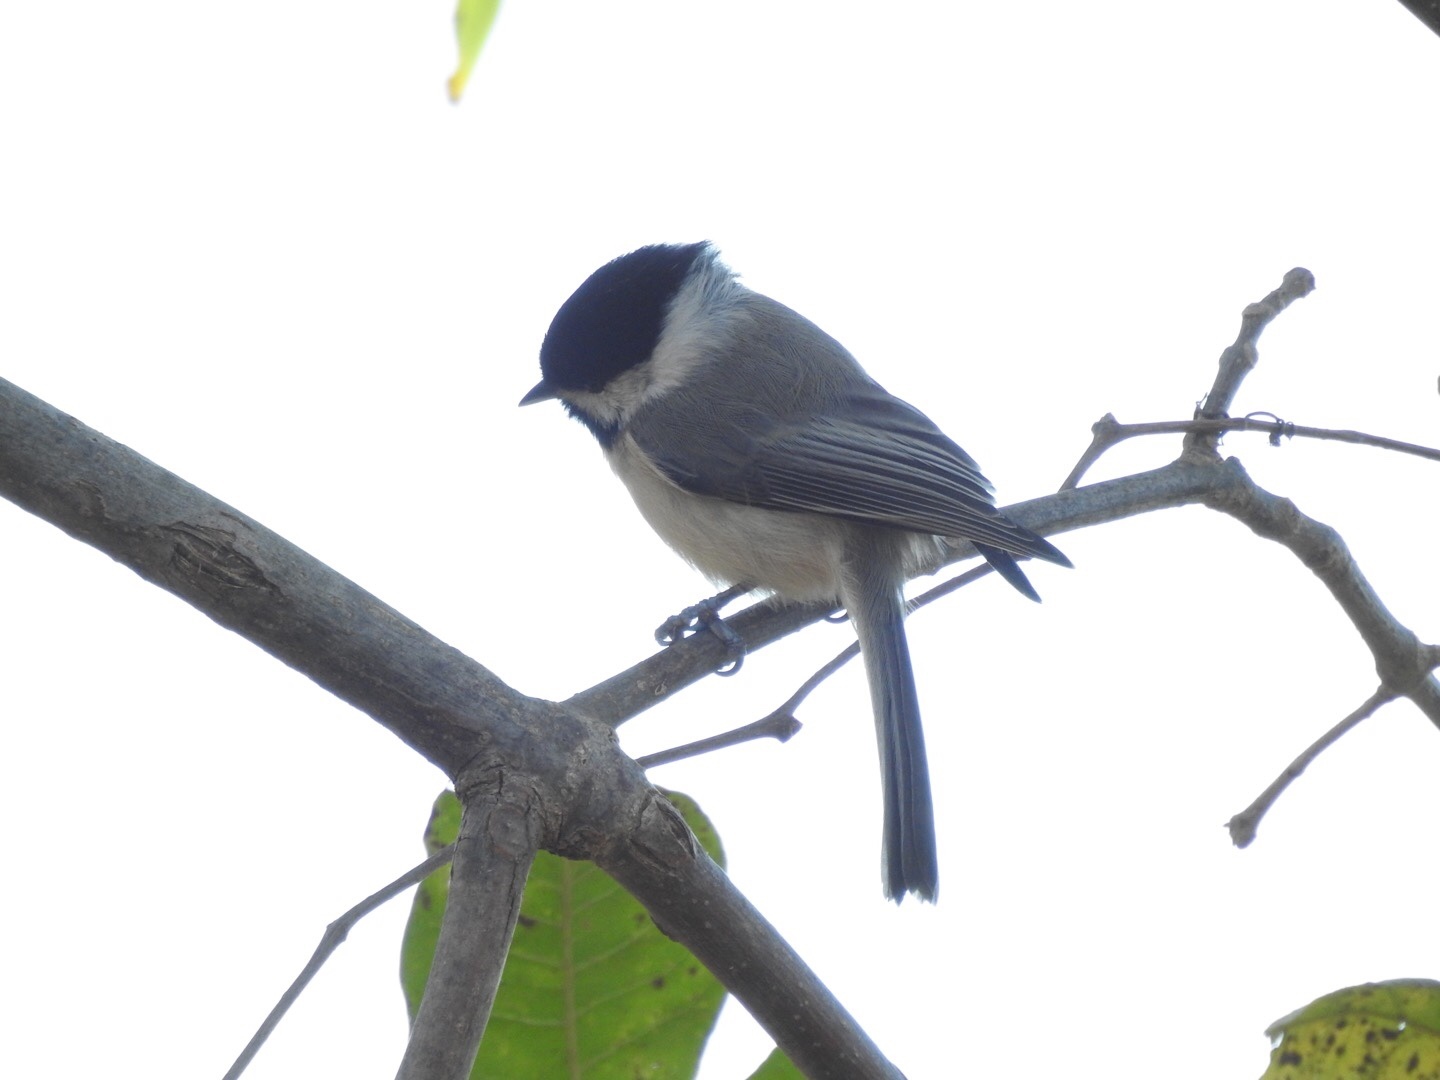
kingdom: Animalia
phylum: Chordata
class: Aves
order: Passeriformes
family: Paridae
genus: Poecile
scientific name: Poecile carolinensis
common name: Carolina chickadee
